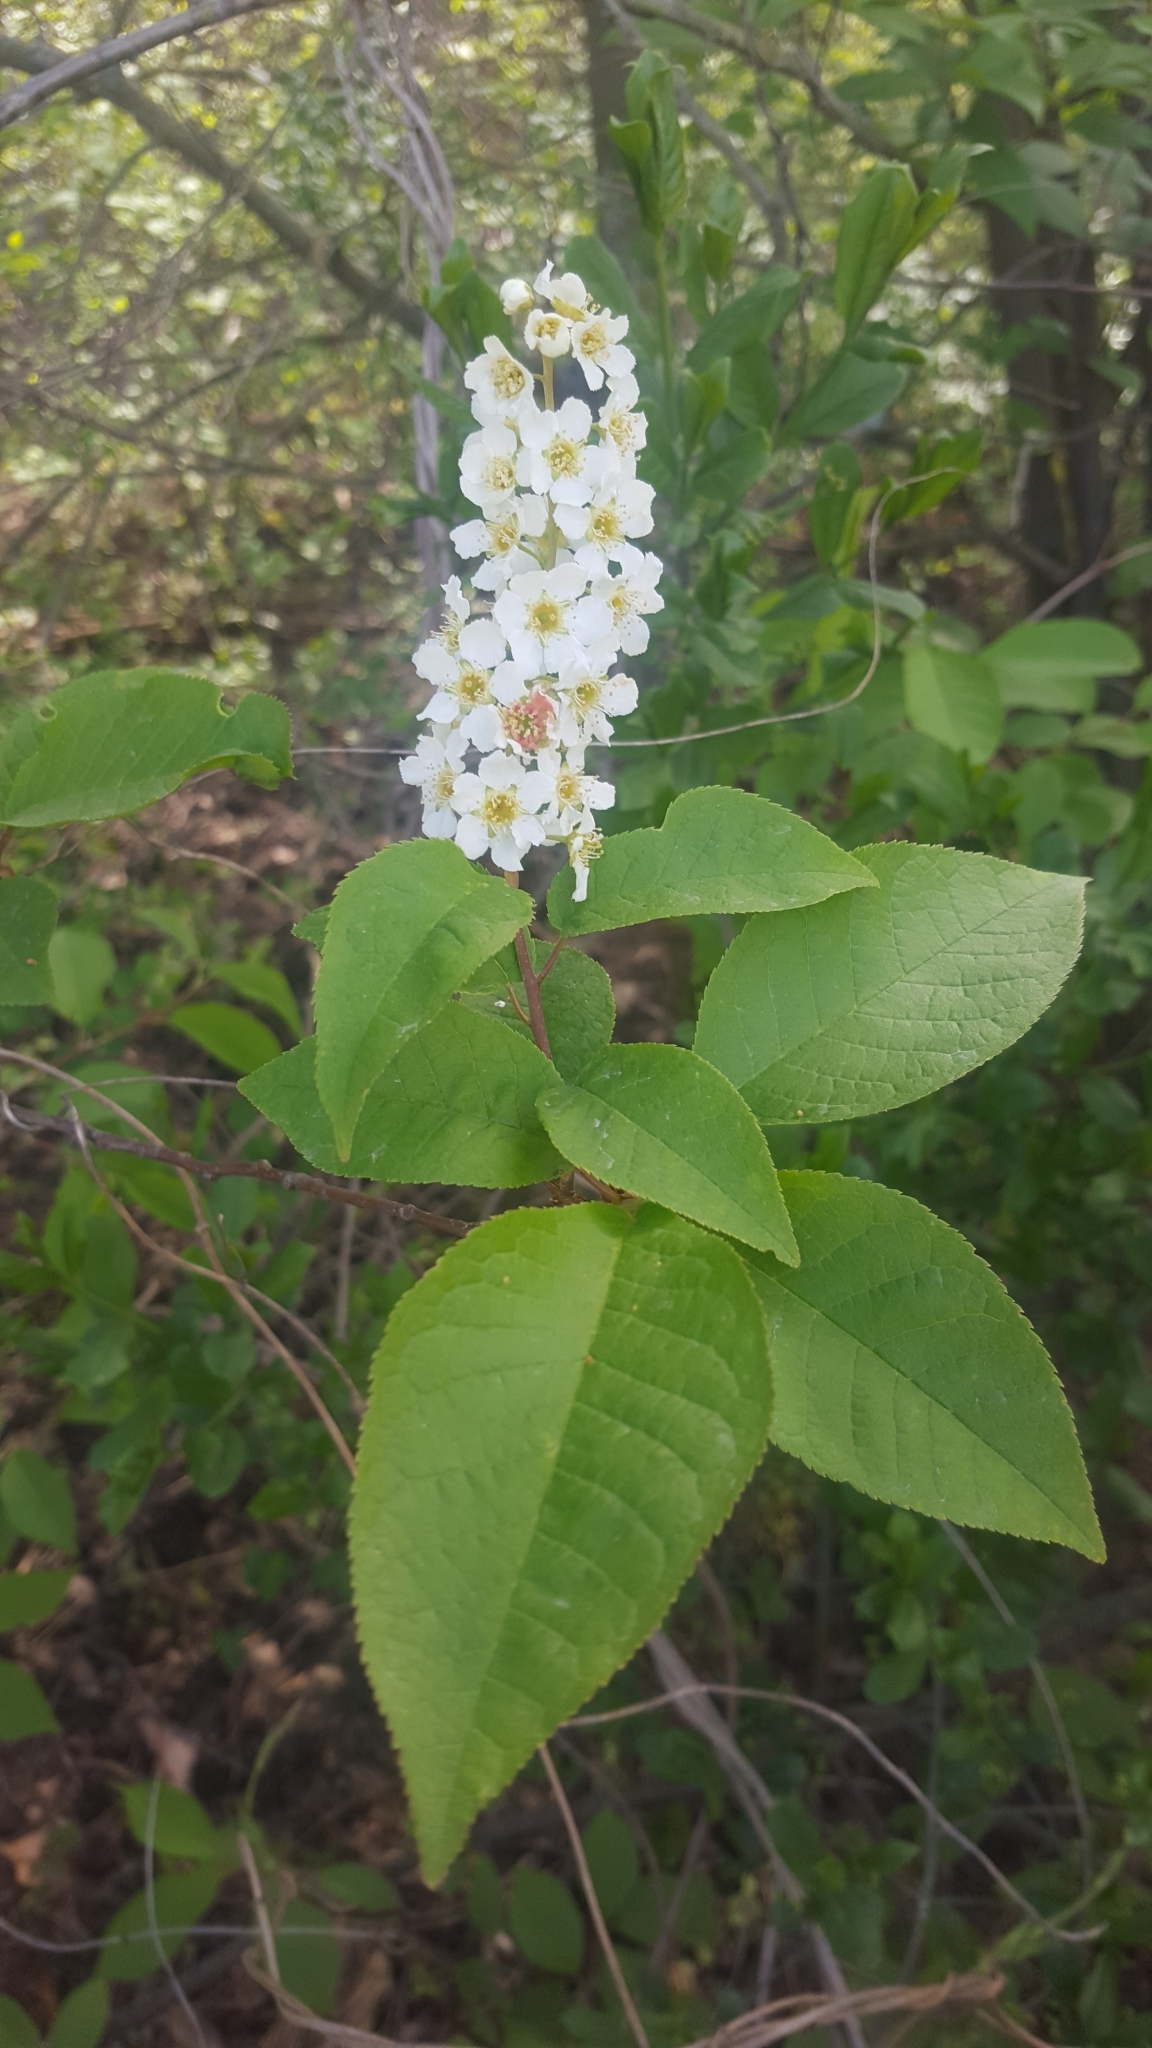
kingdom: Plantae
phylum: Tracheophyta
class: Magnoliopsida
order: Rosales
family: Rosaceae
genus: Prunus
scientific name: Prunus padus
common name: Bird cherry
